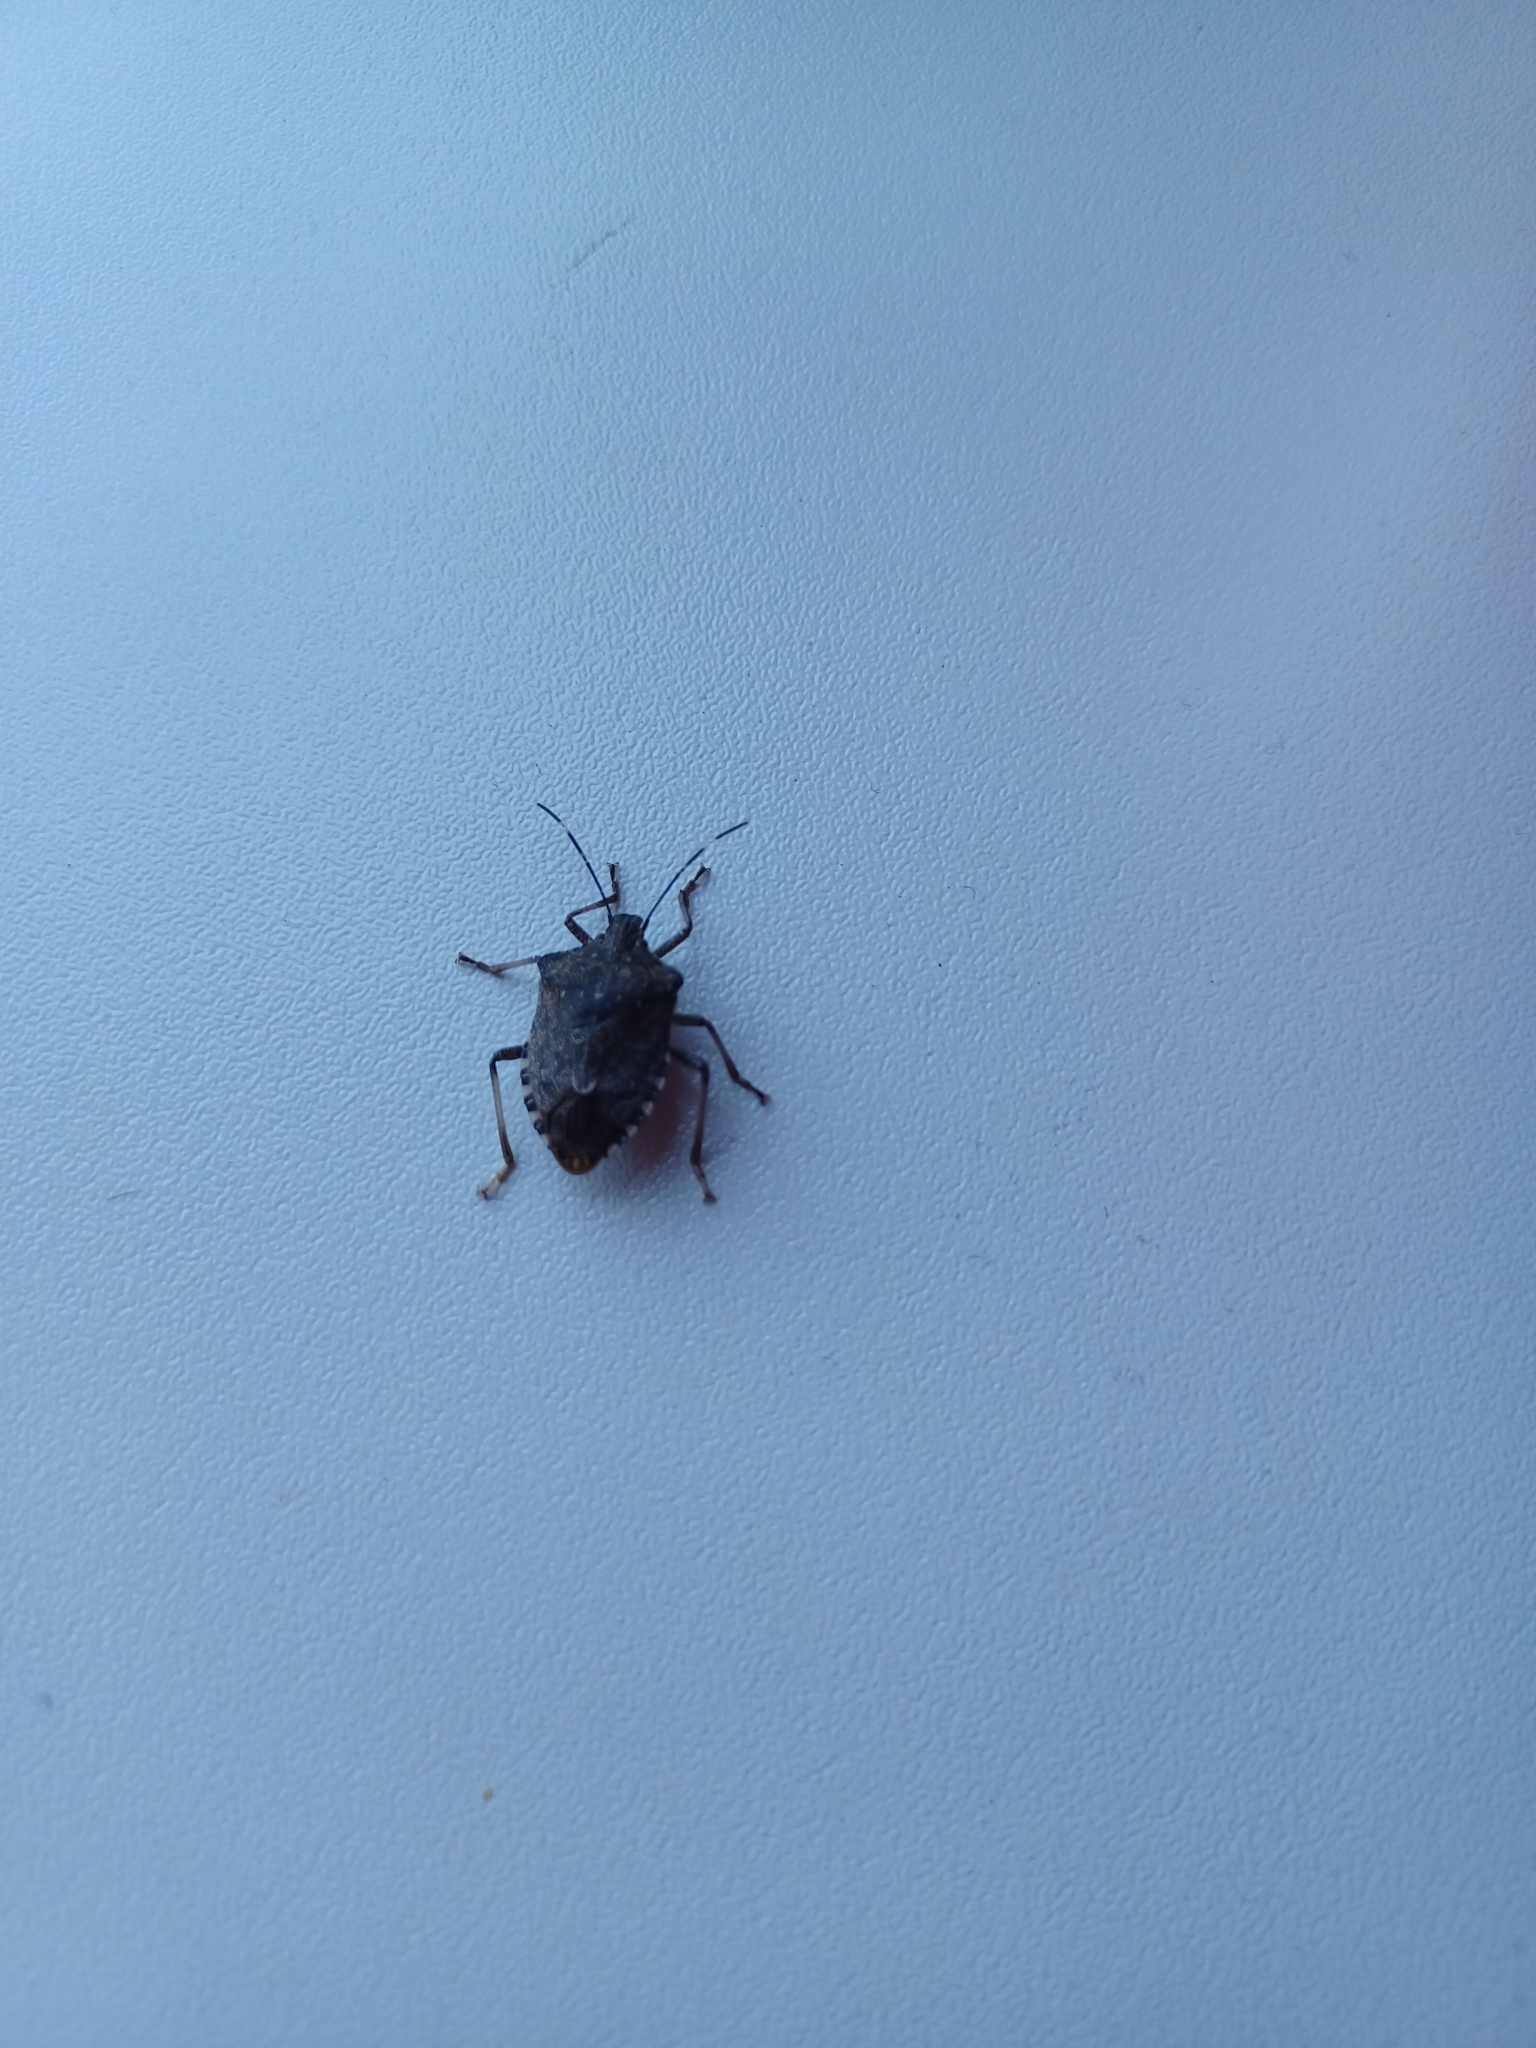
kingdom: Animalia
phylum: Arthropoda
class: Insecta
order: Hemiptera
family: Pentatomidae
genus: Halyomorpha
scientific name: Halyomorpha halys
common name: Brown marmorated stink bug
